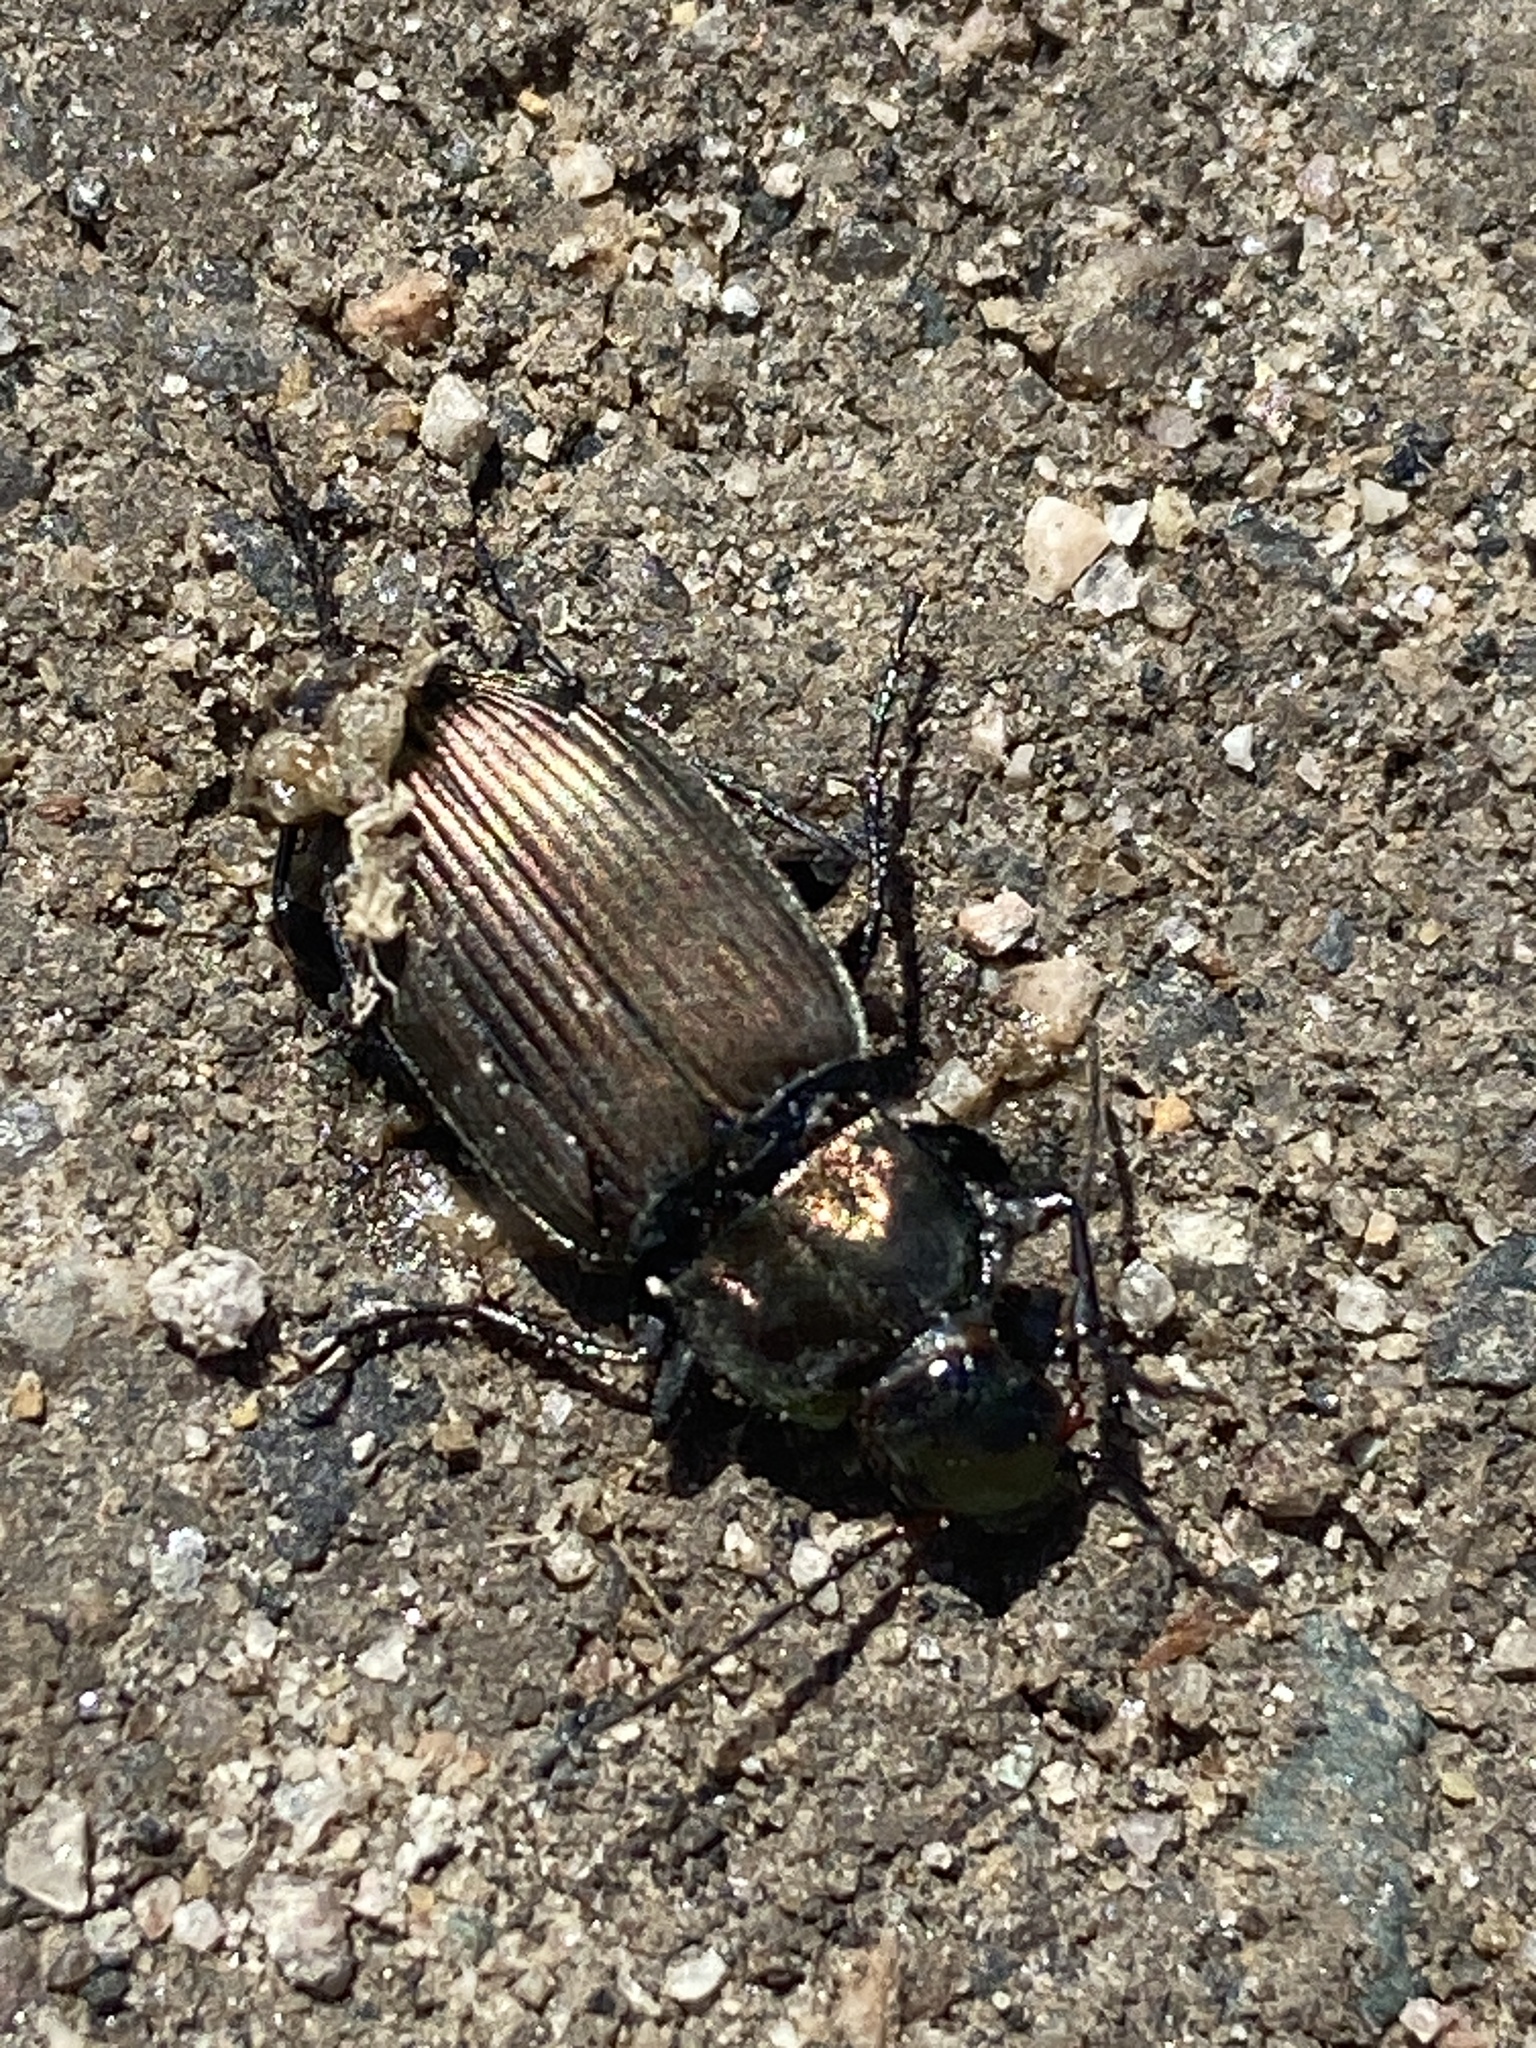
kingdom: Animalia
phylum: Arthropoda
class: Insecta
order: Coleoptera
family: Carabidae
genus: Poecilus
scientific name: Poecilus cupreus
